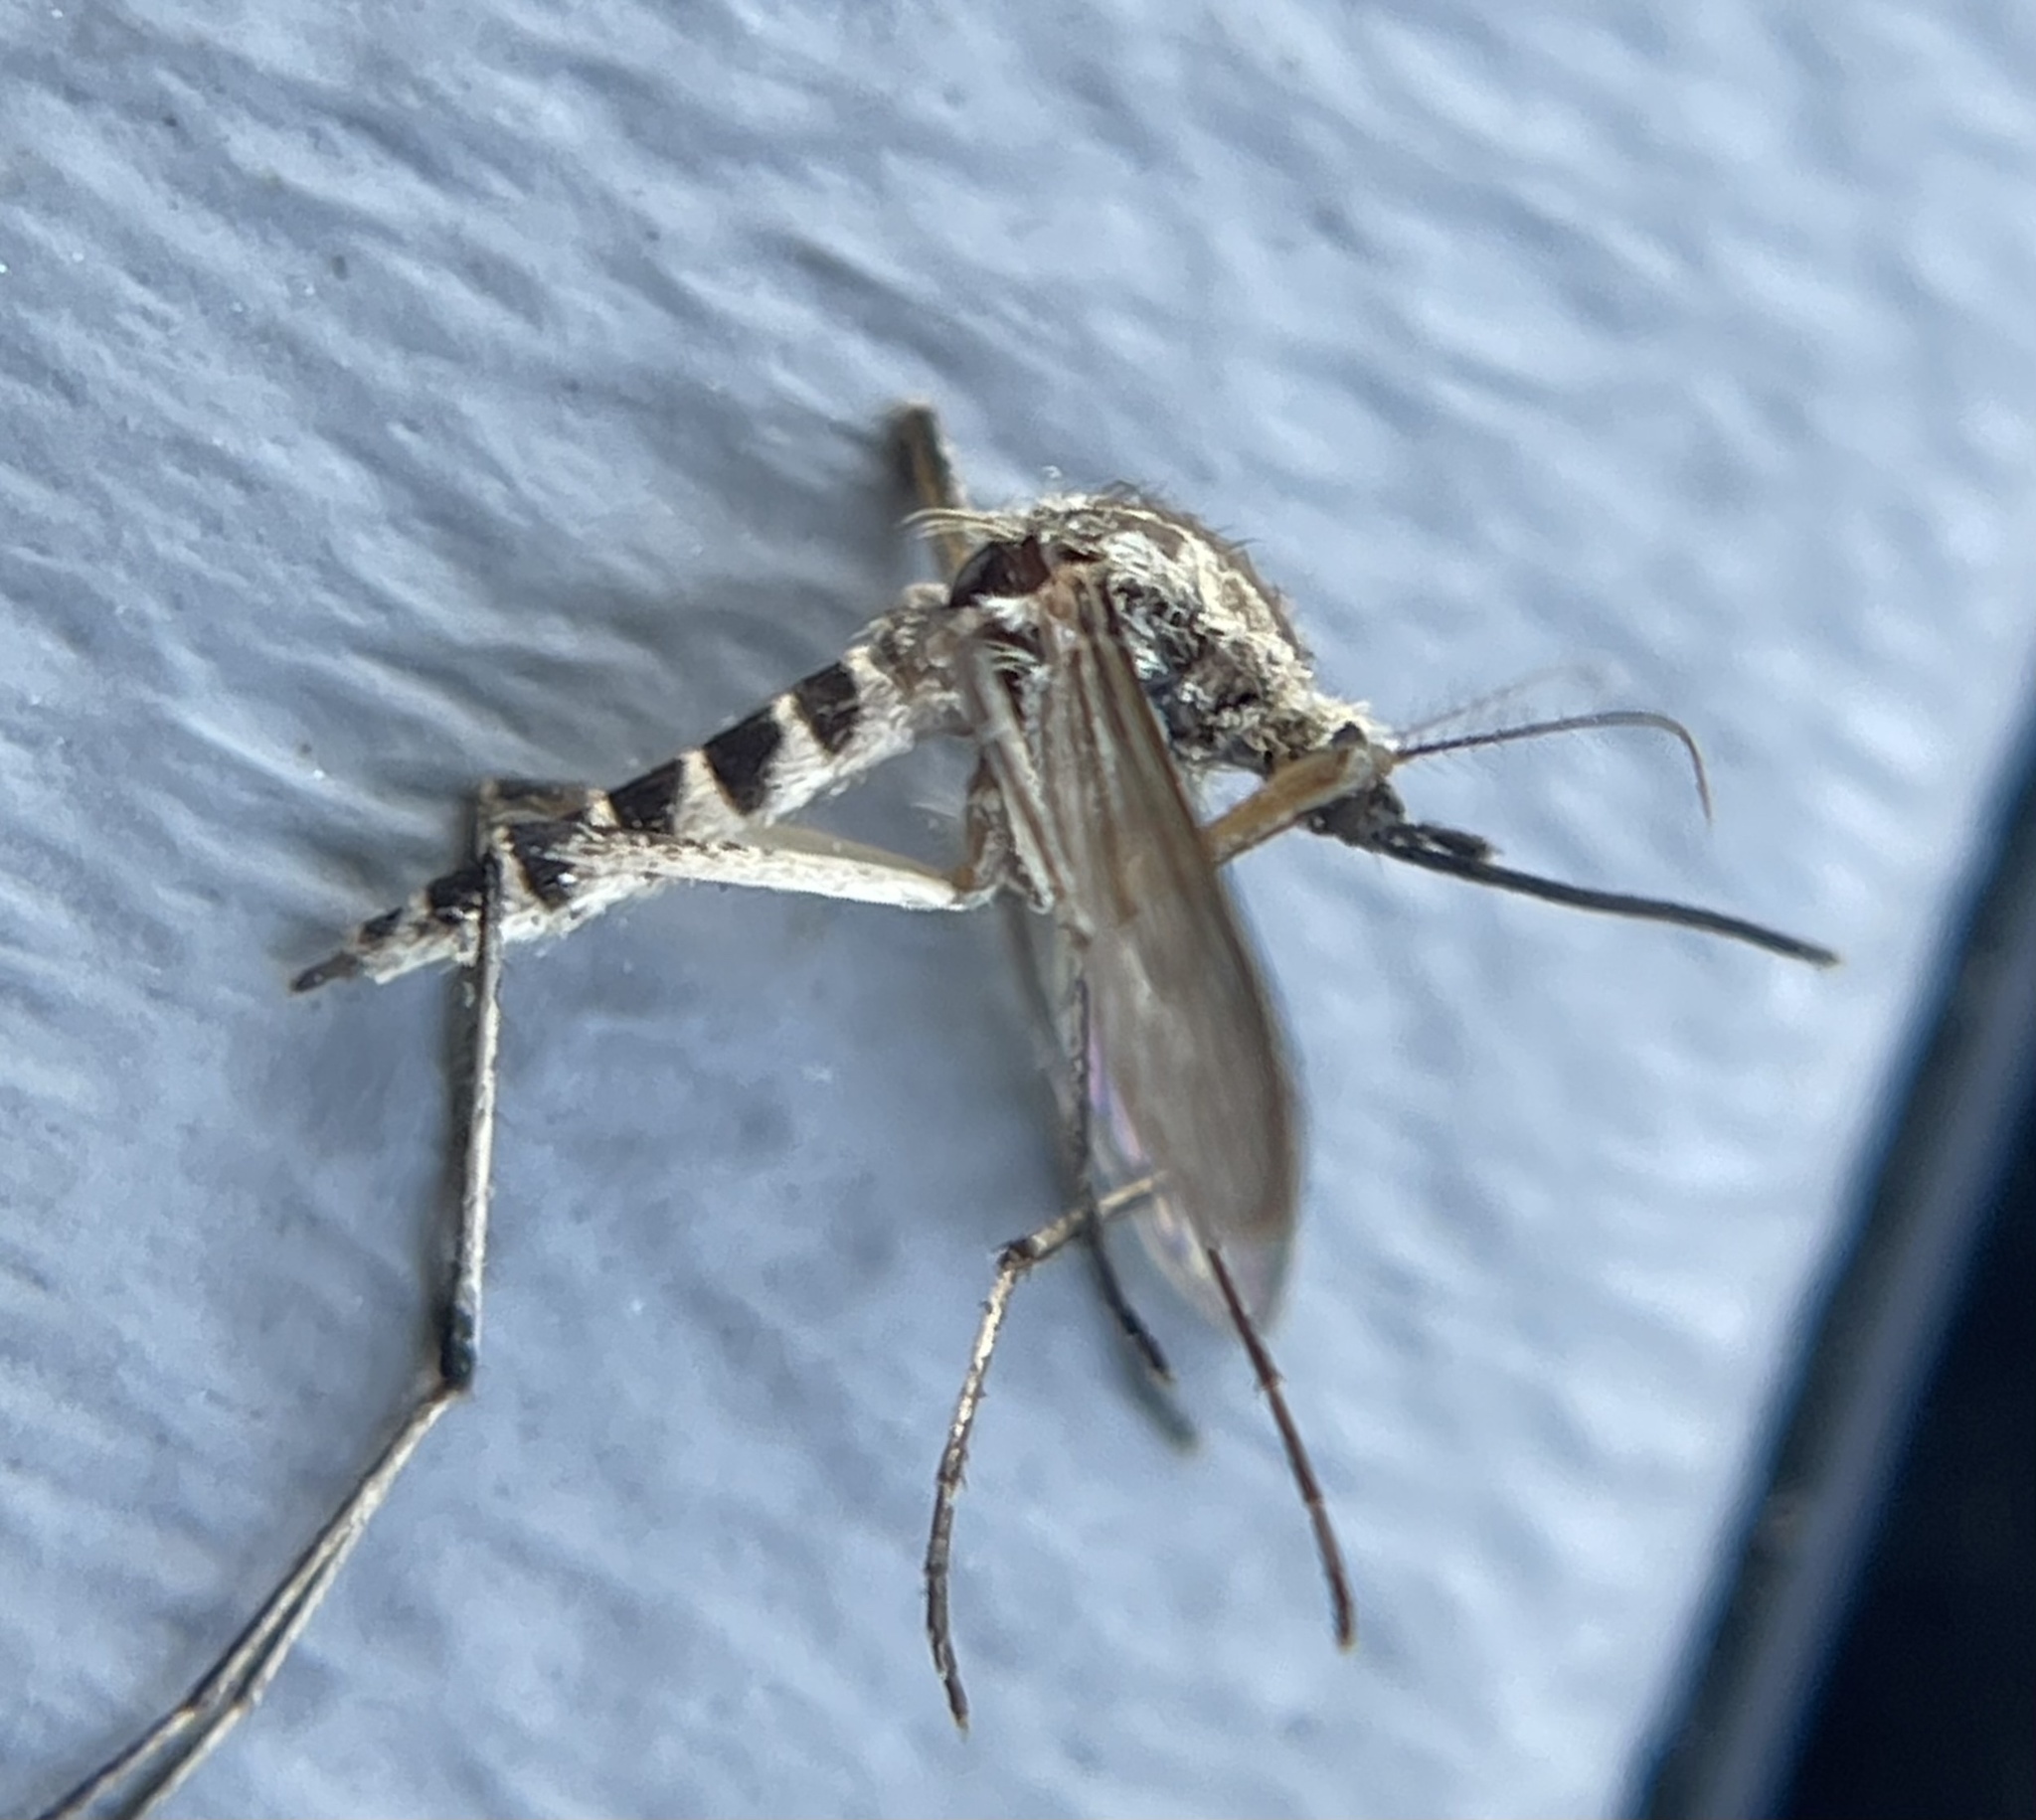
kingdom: Animalia
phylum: Arthropoda
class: Insecta
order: Diptera
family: Culicidae
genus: Aedes
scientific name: Aedes sticticus
